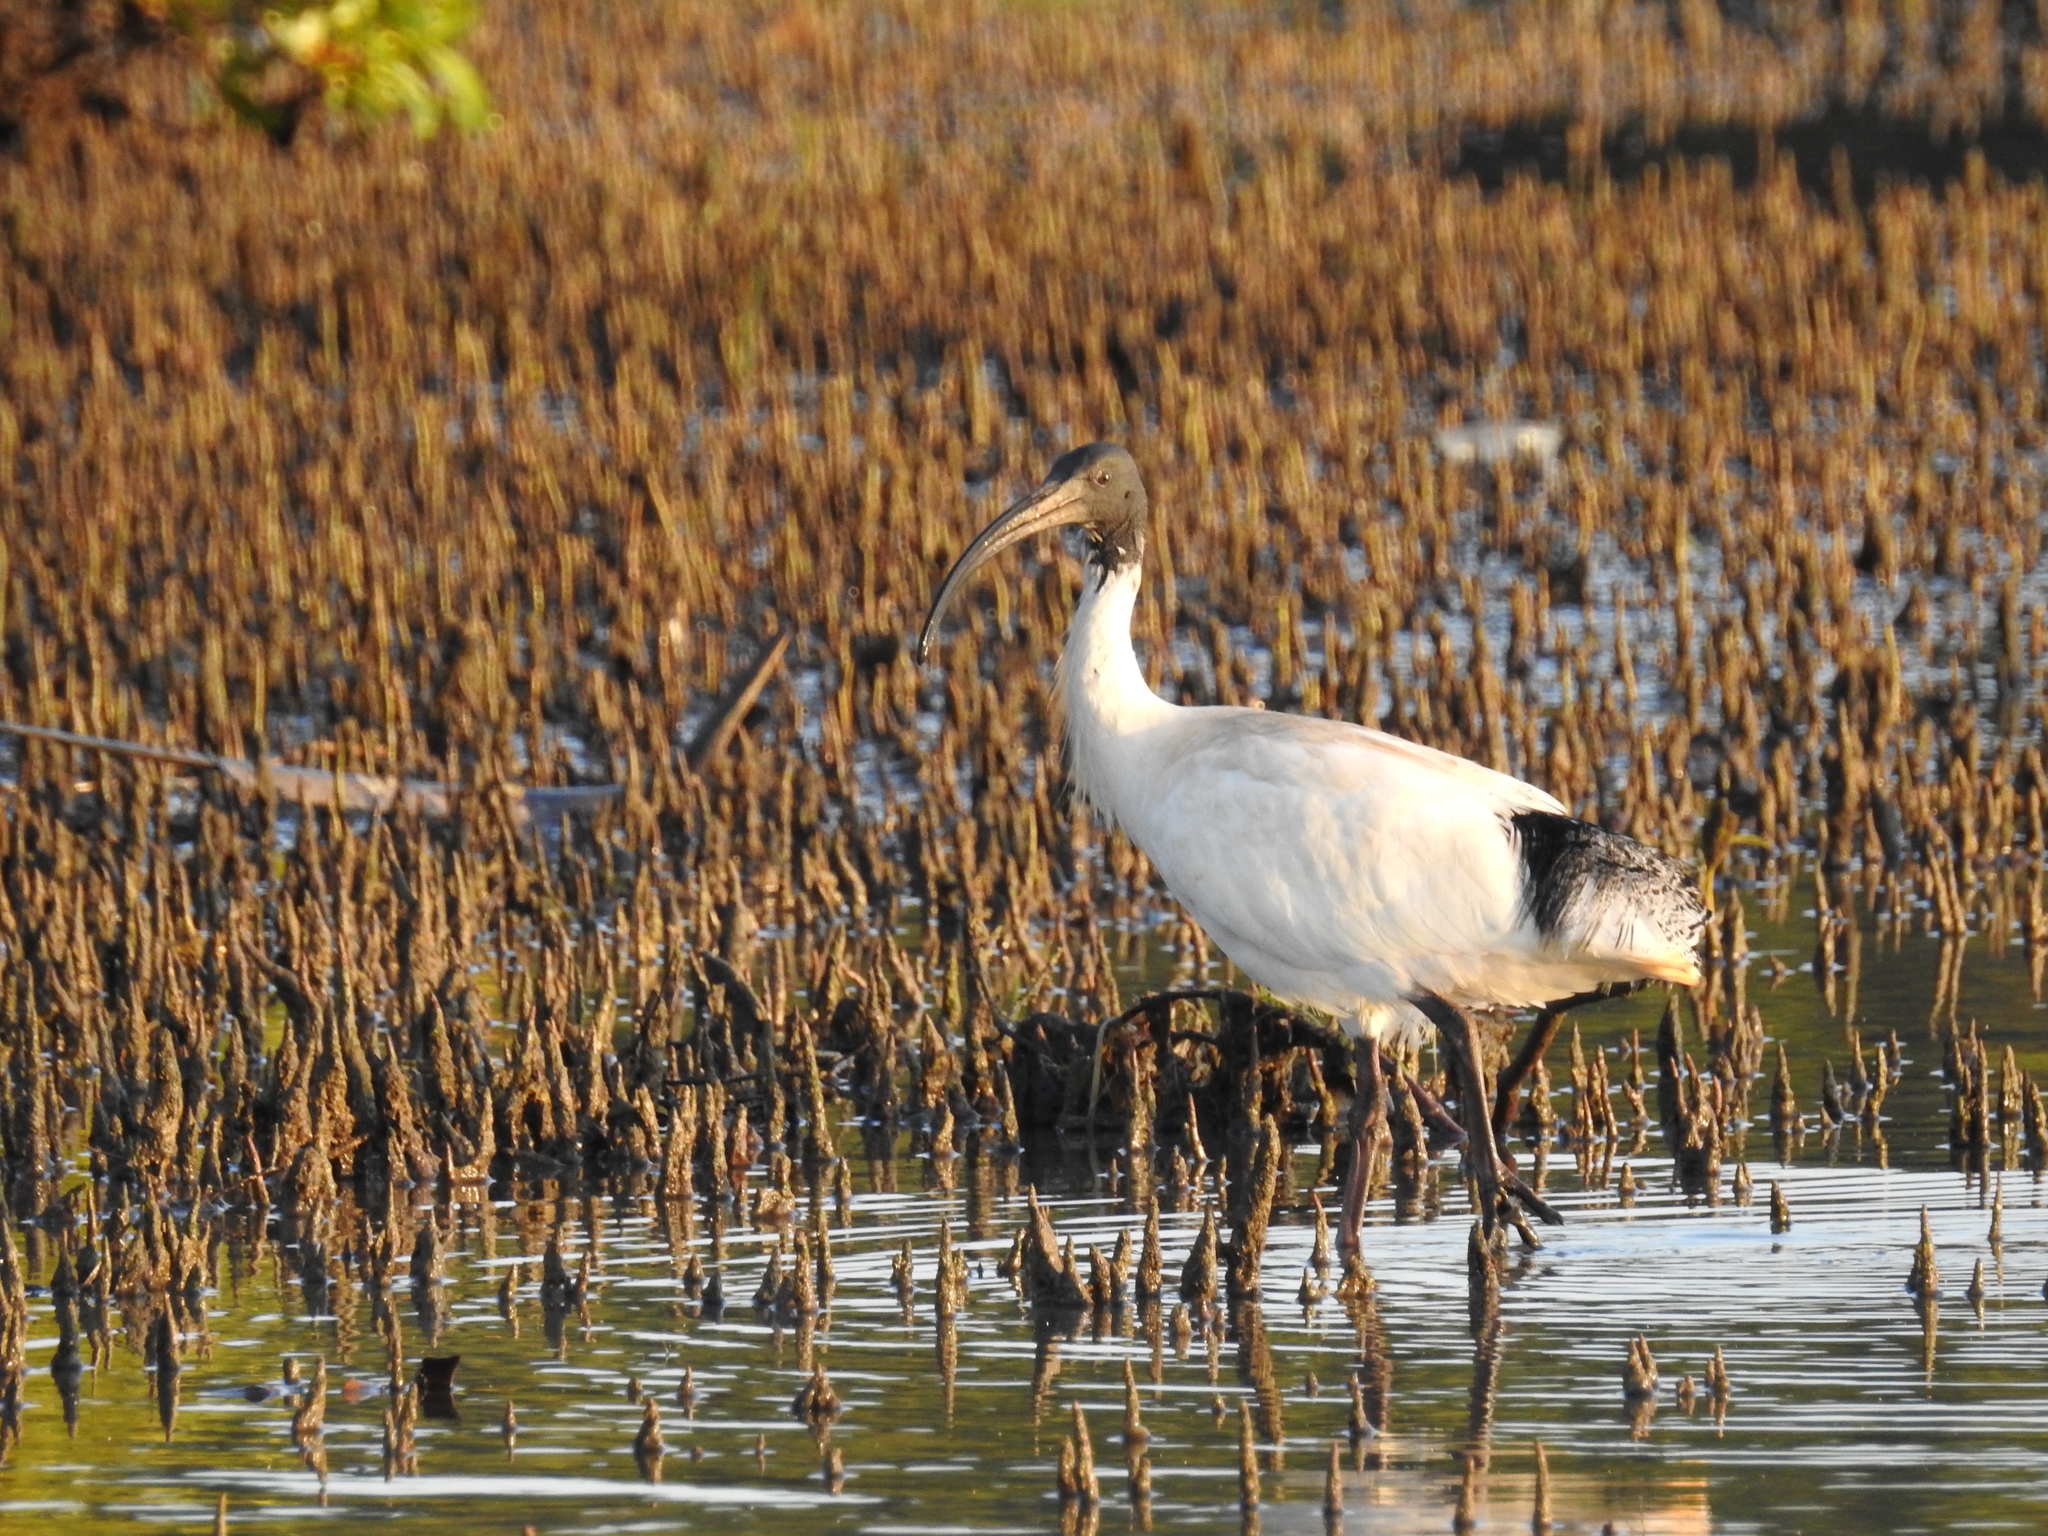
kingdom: Animalia
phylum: Chordata
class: Aves
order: Pelecaniformes
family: Threskiornithidae
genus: Threskiornis
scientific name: Threskiornis molucca
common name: Australian white ibis
